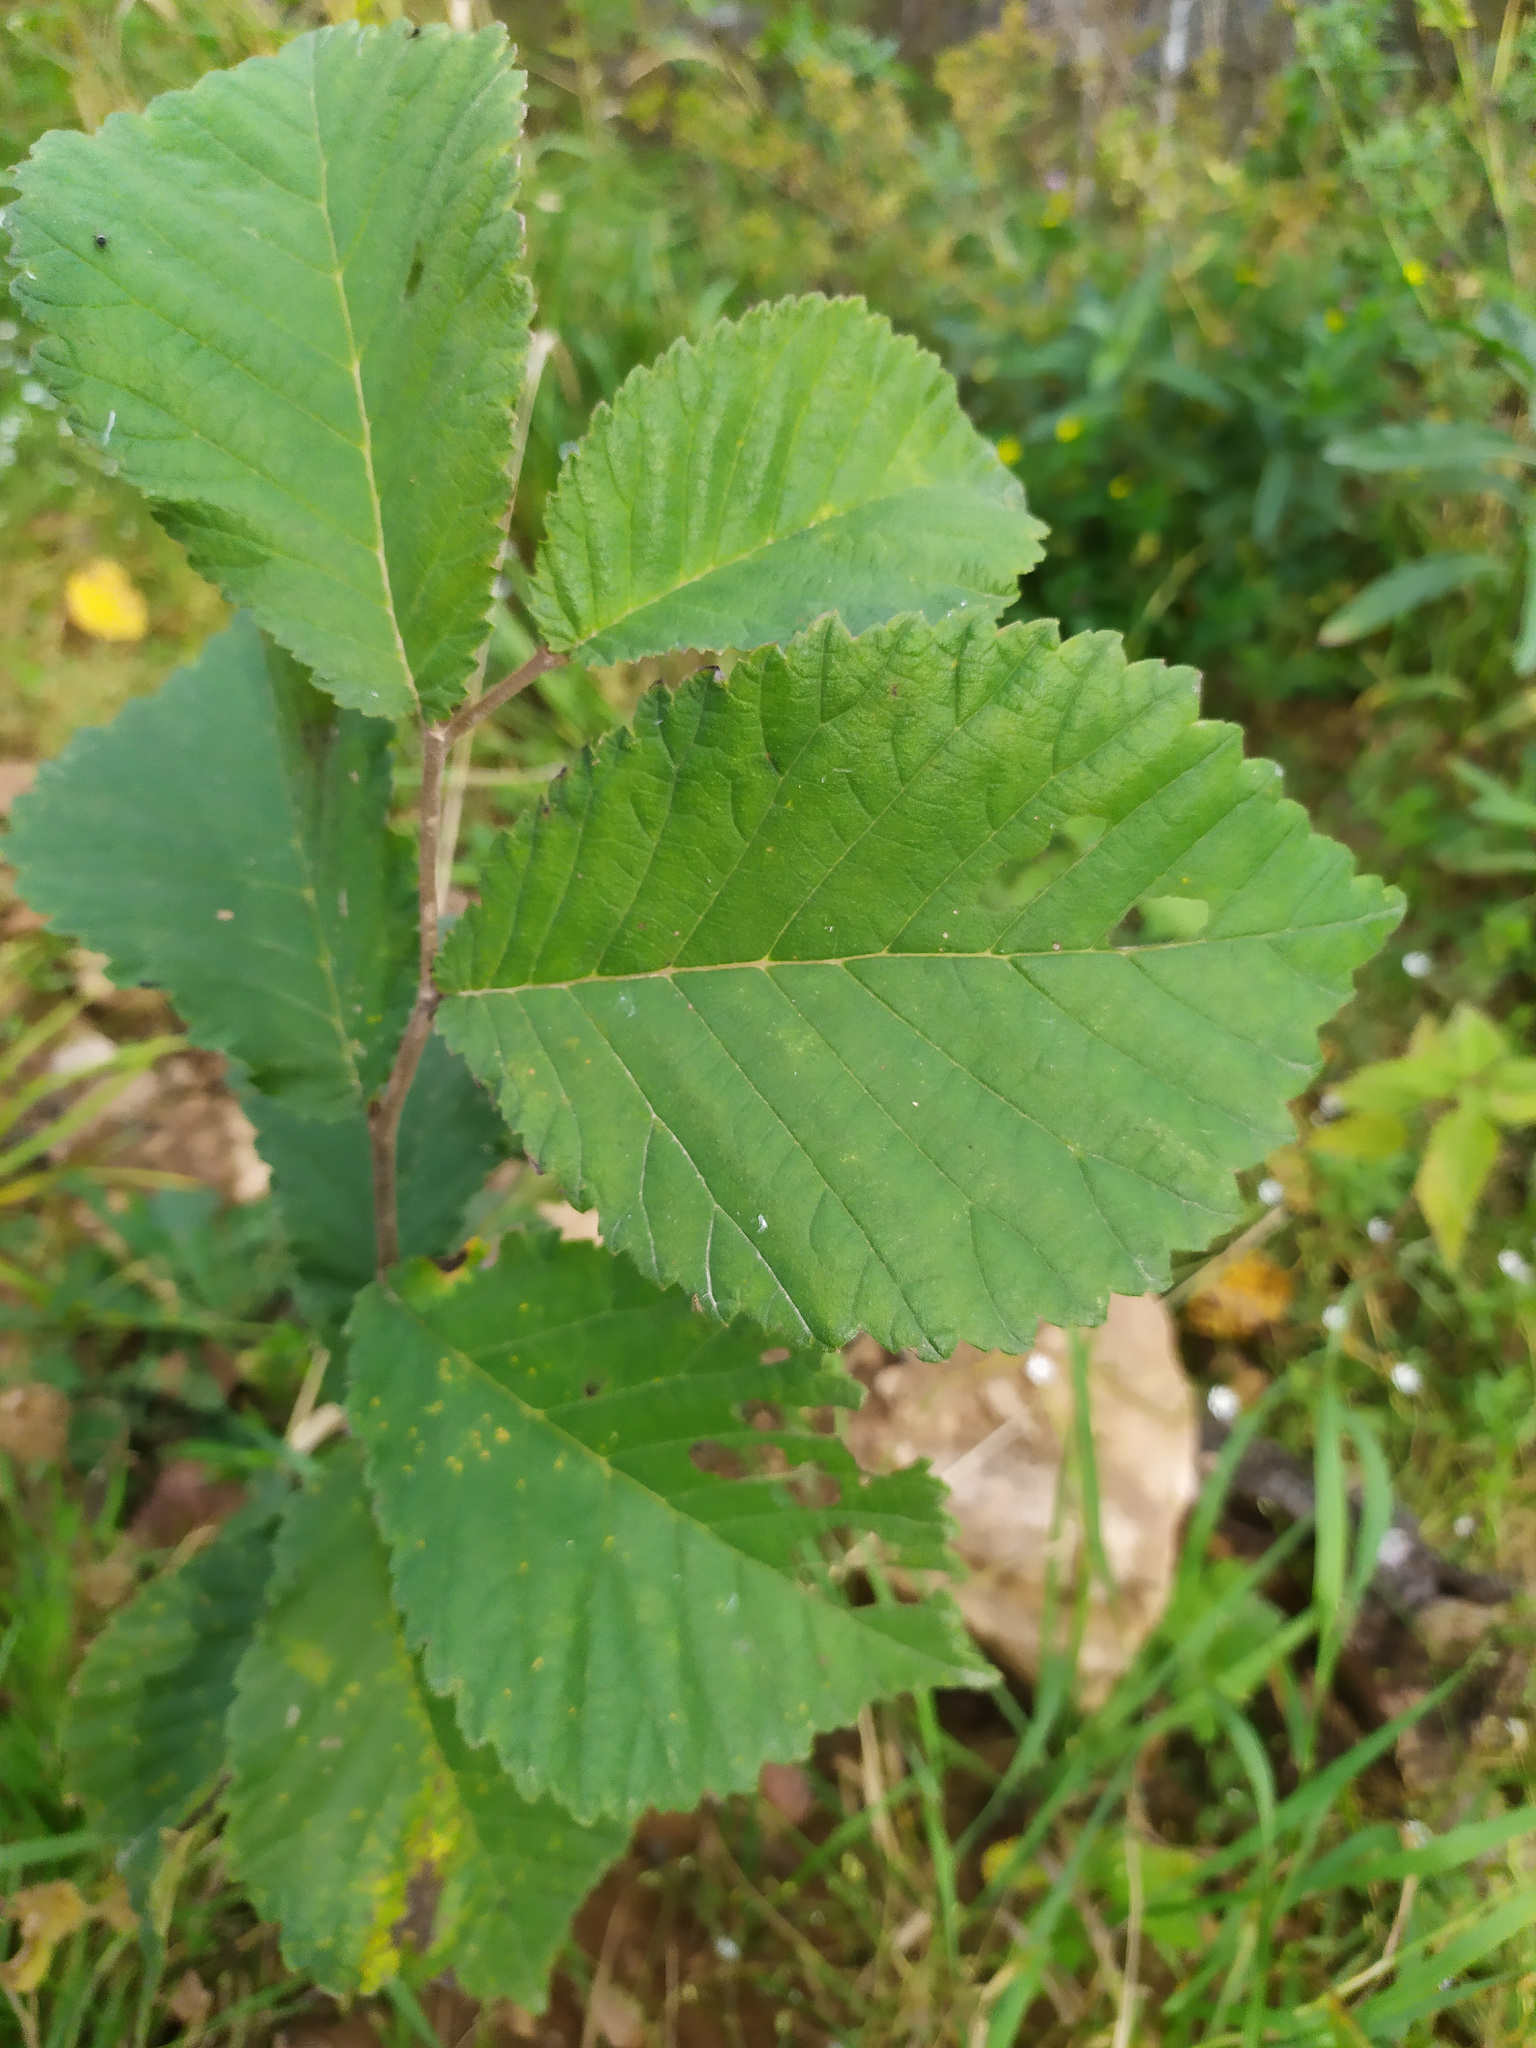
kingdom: Plantae
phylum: Tracheophyta
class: Magnoliopsida
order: Rosales
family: Ulmaceae
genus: Ulmus
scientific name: Ulmus glabra
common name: Wych elm
